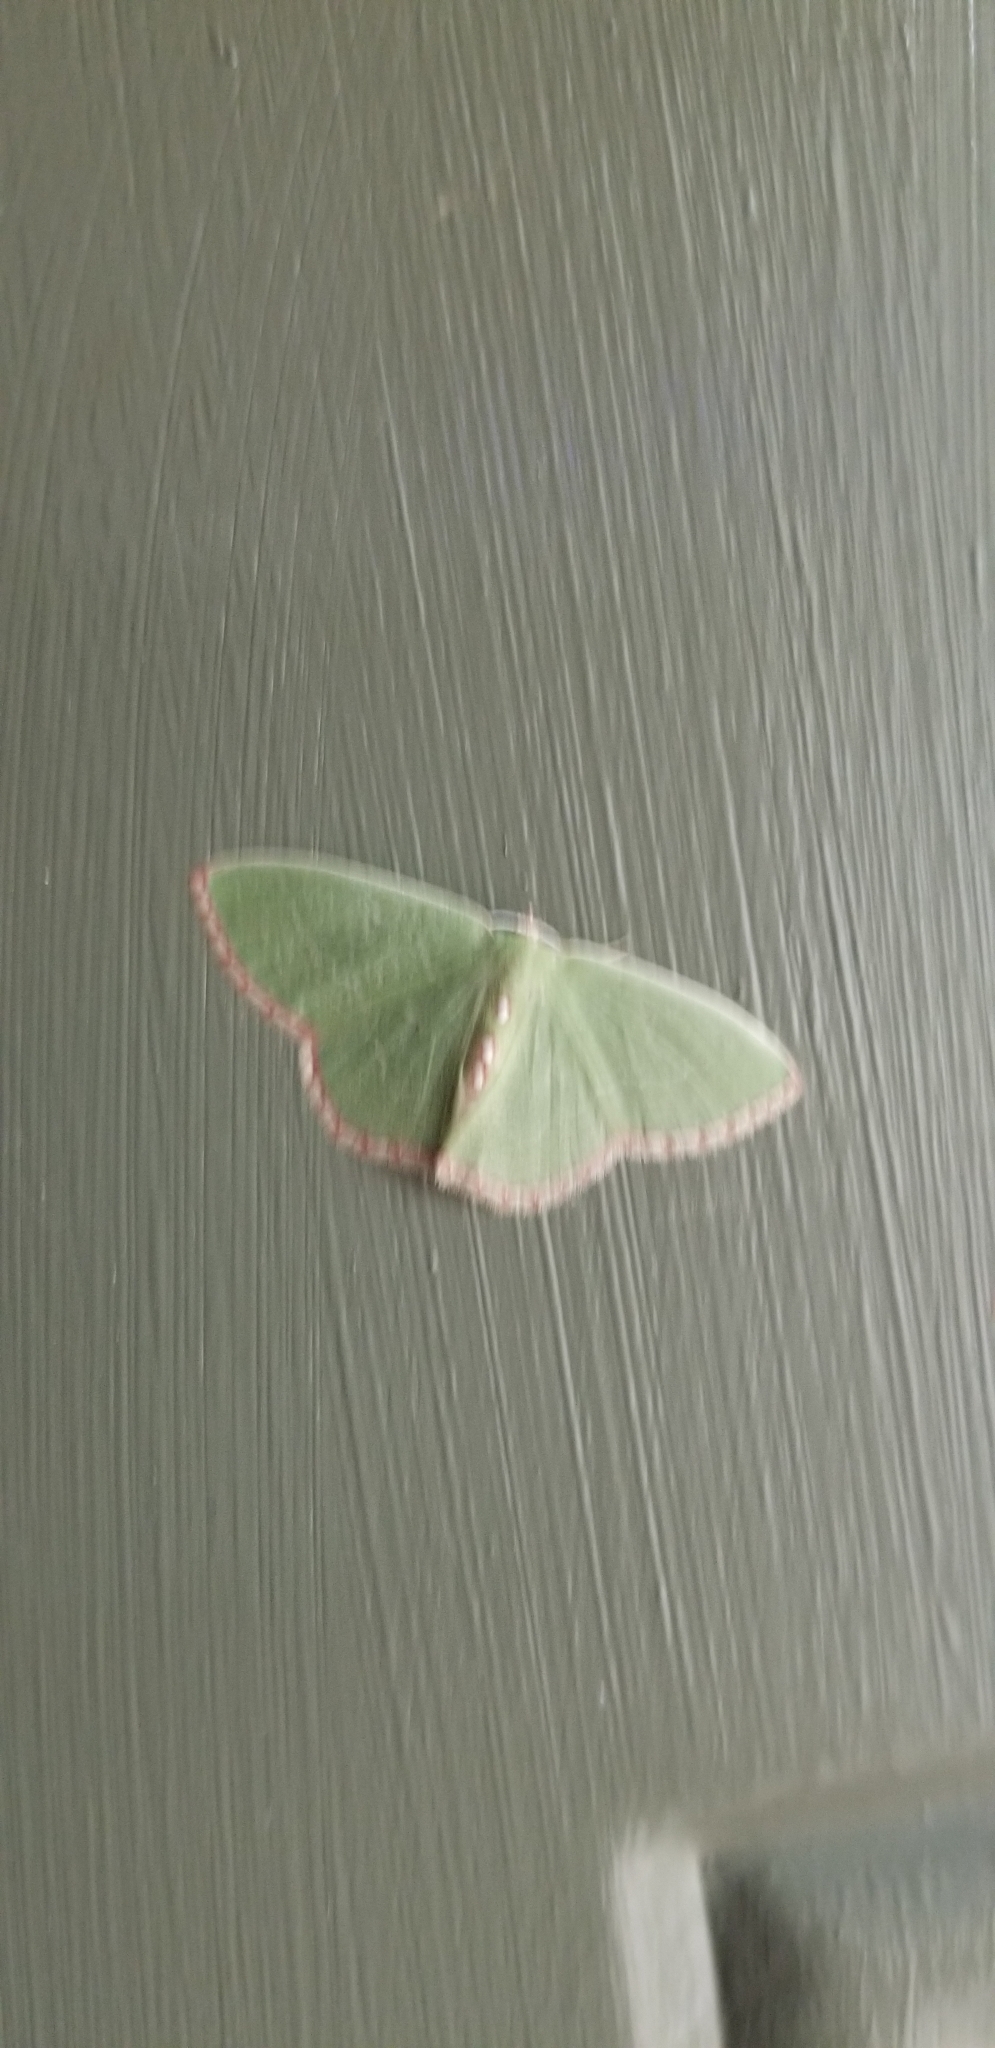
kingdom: Animalia
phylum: Arthropoda
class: Insecta
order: Lepidoptera
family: Geometridae
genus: Nemoria
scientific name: Nemoria lixaria
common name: Red-bordered emerald
